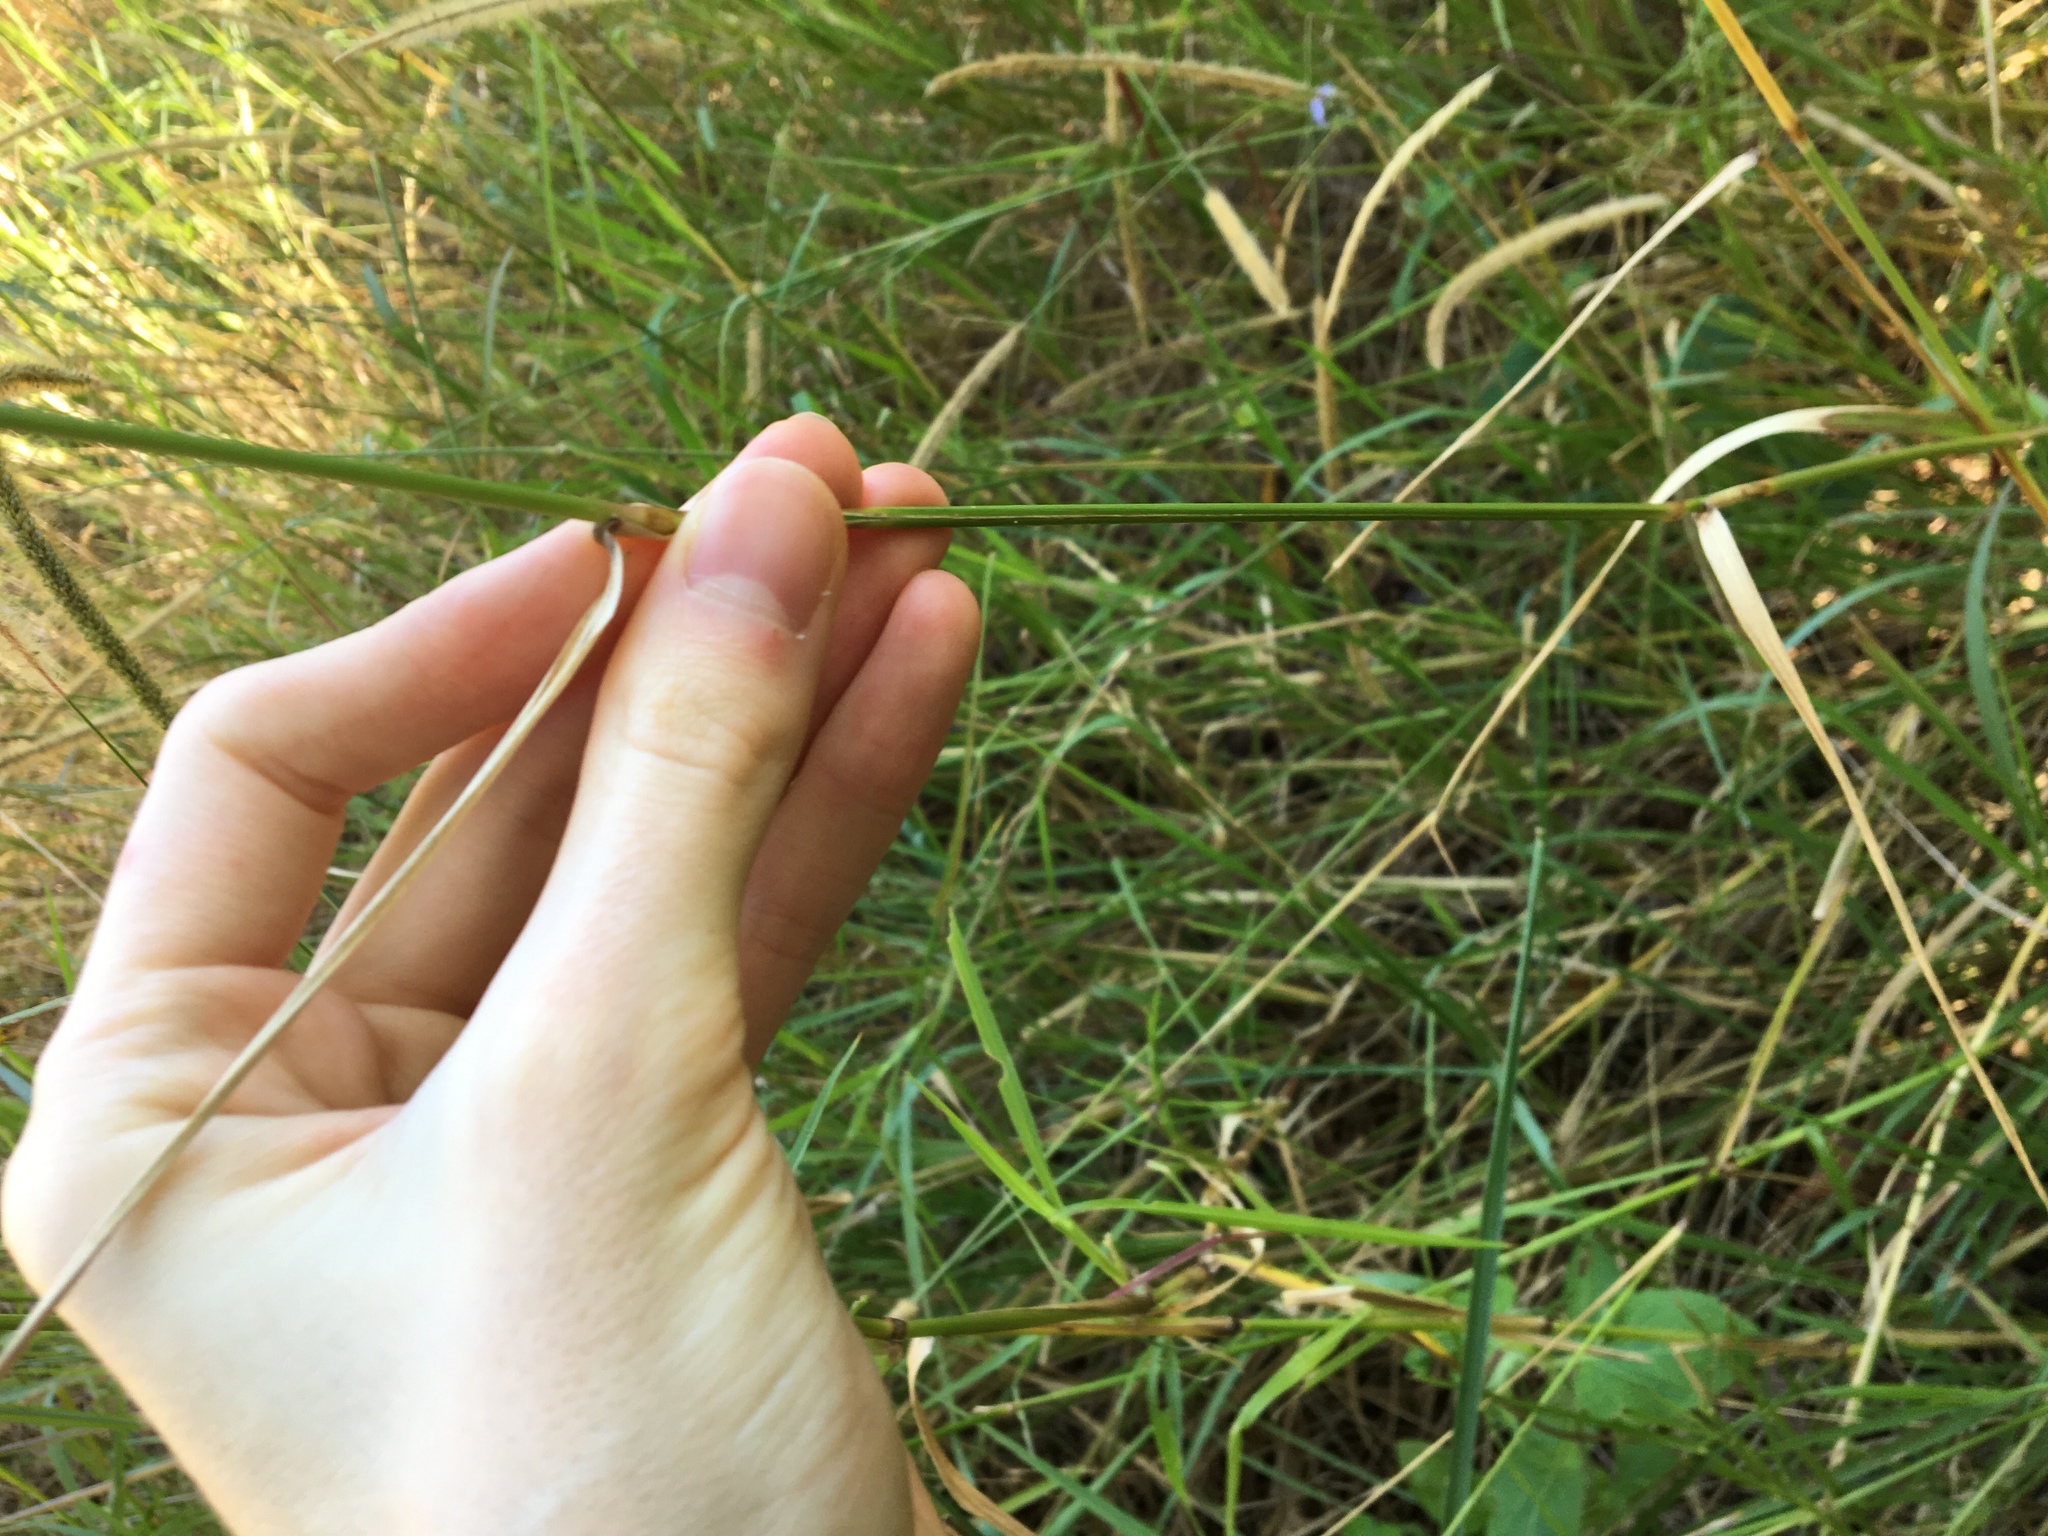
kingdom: Plantae
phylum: Tracheophyta
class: Liliopsida
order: Poales
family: Poaceae
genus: Setaria
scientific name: Setaria sphacelata
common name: African bristlegrass
